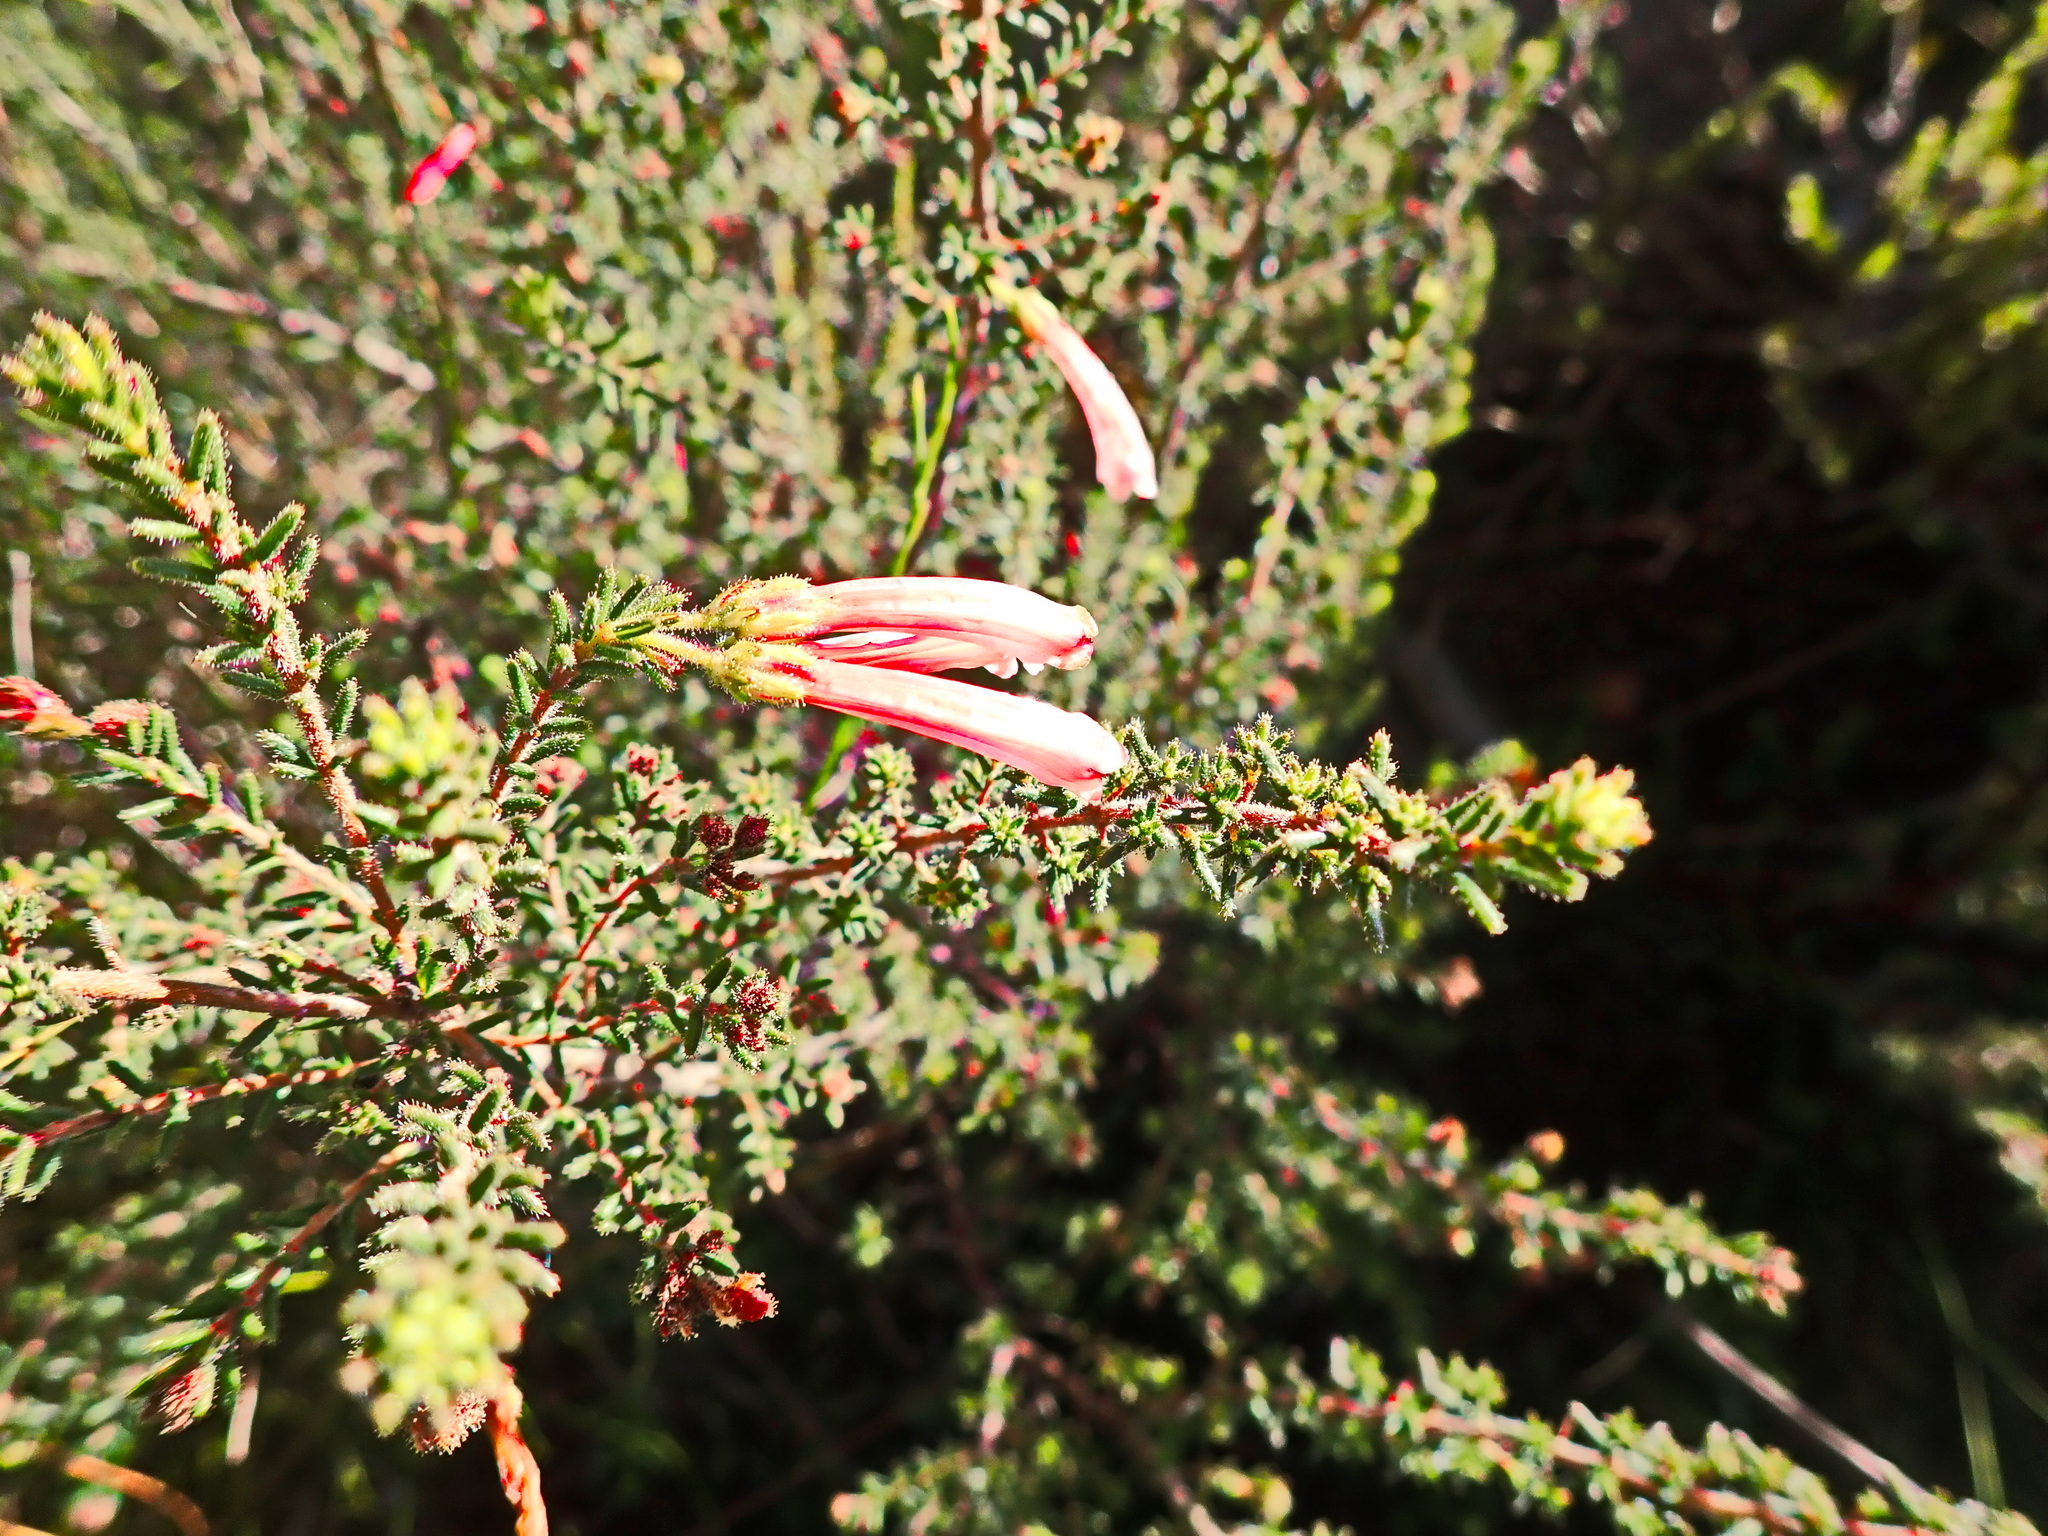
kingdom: Plantae
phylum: Tracheophyta
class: Magnoliopsida
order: Ericales
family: Ericaceae
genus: Erica
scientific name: Erica glandulosa
